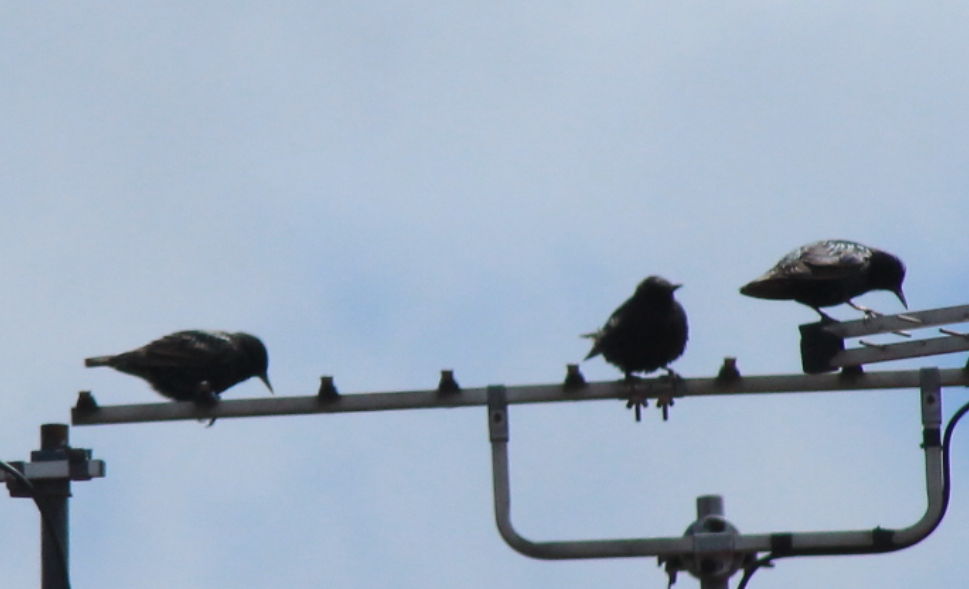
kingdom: Animalia
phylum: Chordata
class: Aves
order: Passeriformes
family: Sturnidae
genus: Sturnus
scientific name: Sturnus vulgaris
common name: Common starling
